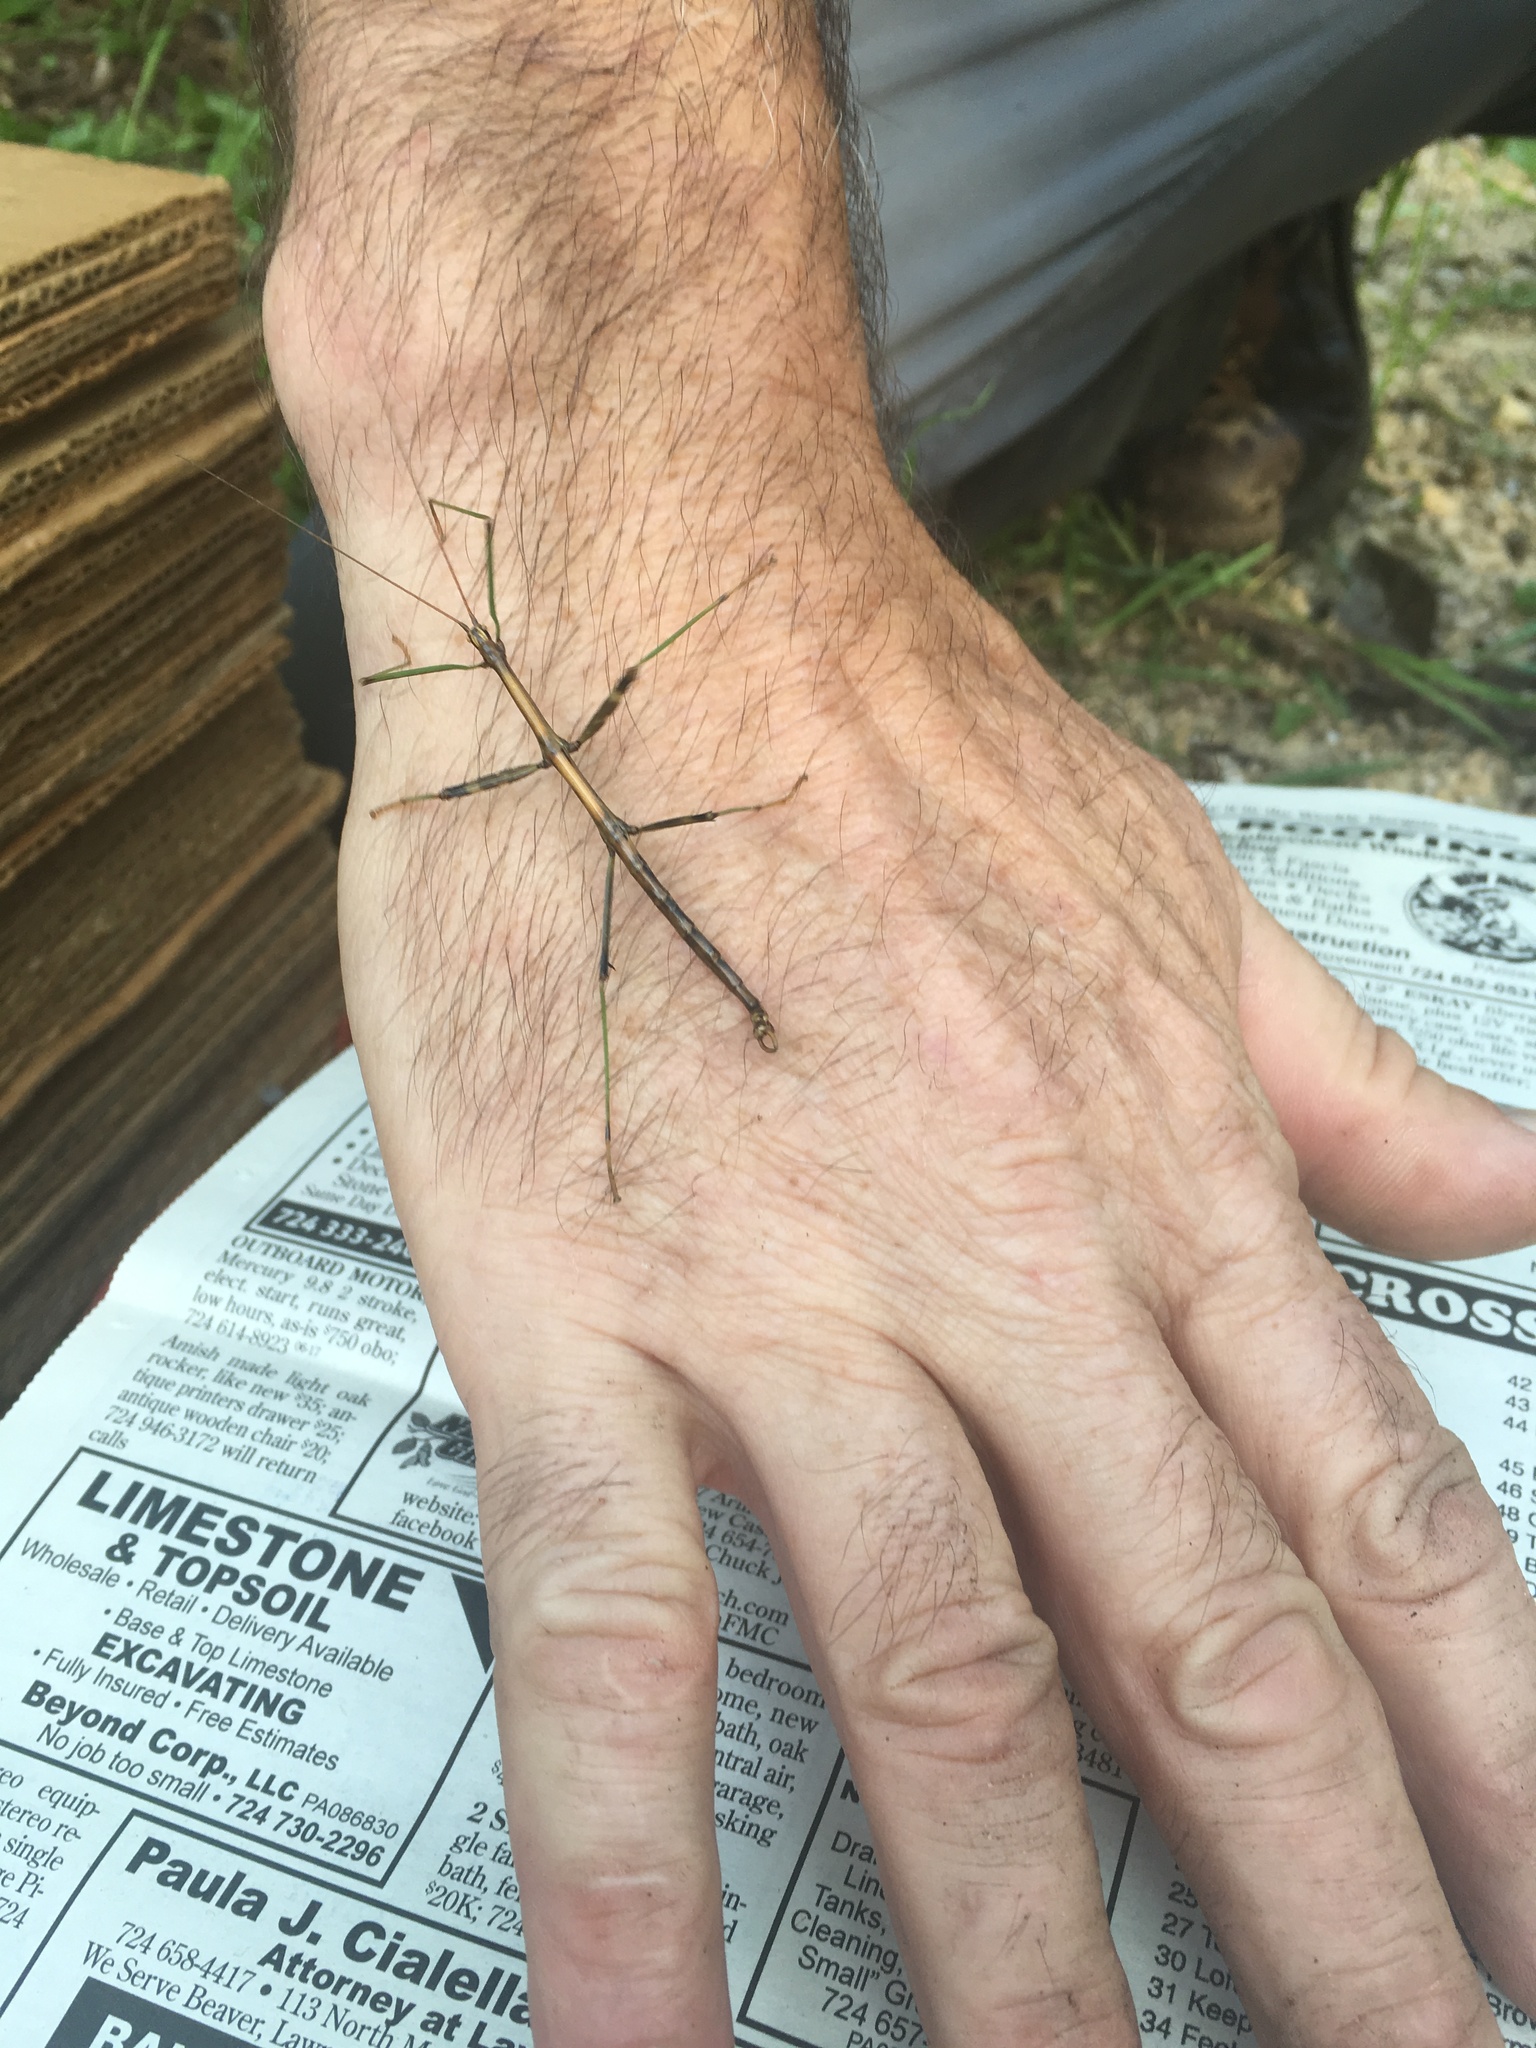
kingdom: Animalia
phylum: Arthropoda
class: Insecta
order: Phasmida
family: Diapheromeridae
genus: Diapheromera
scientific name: Diapheromera femorata
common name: Common american walkingstick
